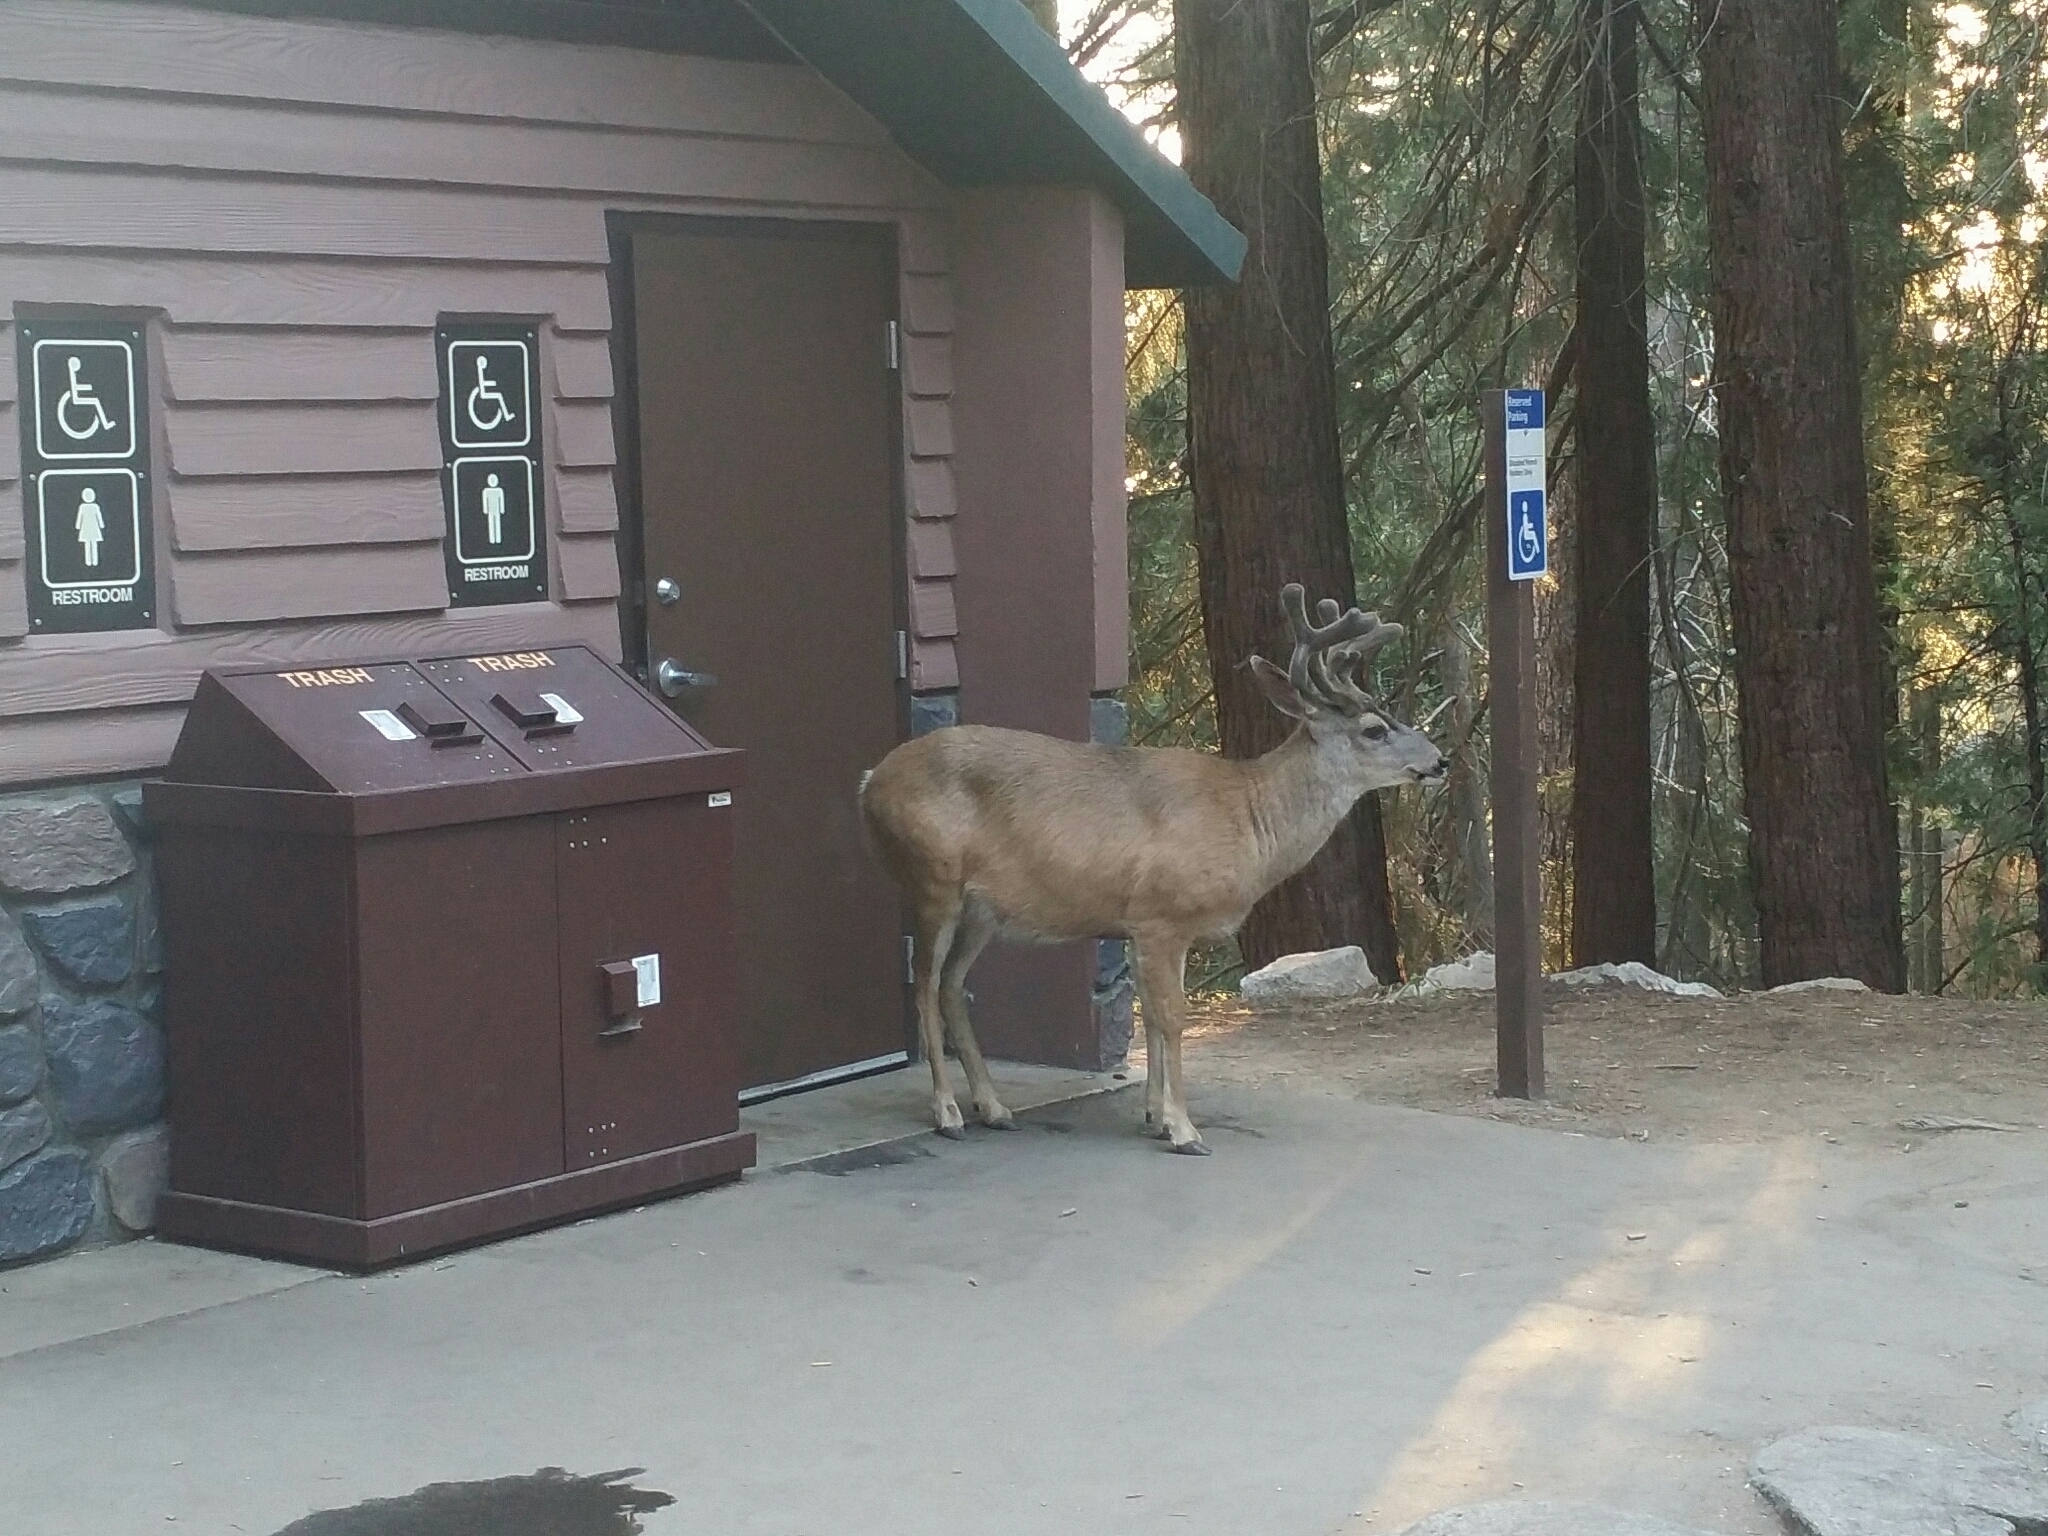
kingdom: Animalia
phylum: Chordata
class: Mammalia
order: Artiodactyla
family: Cervidae
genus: Odocoileus
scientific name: Odocoileus hemionus
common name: Mule deer
